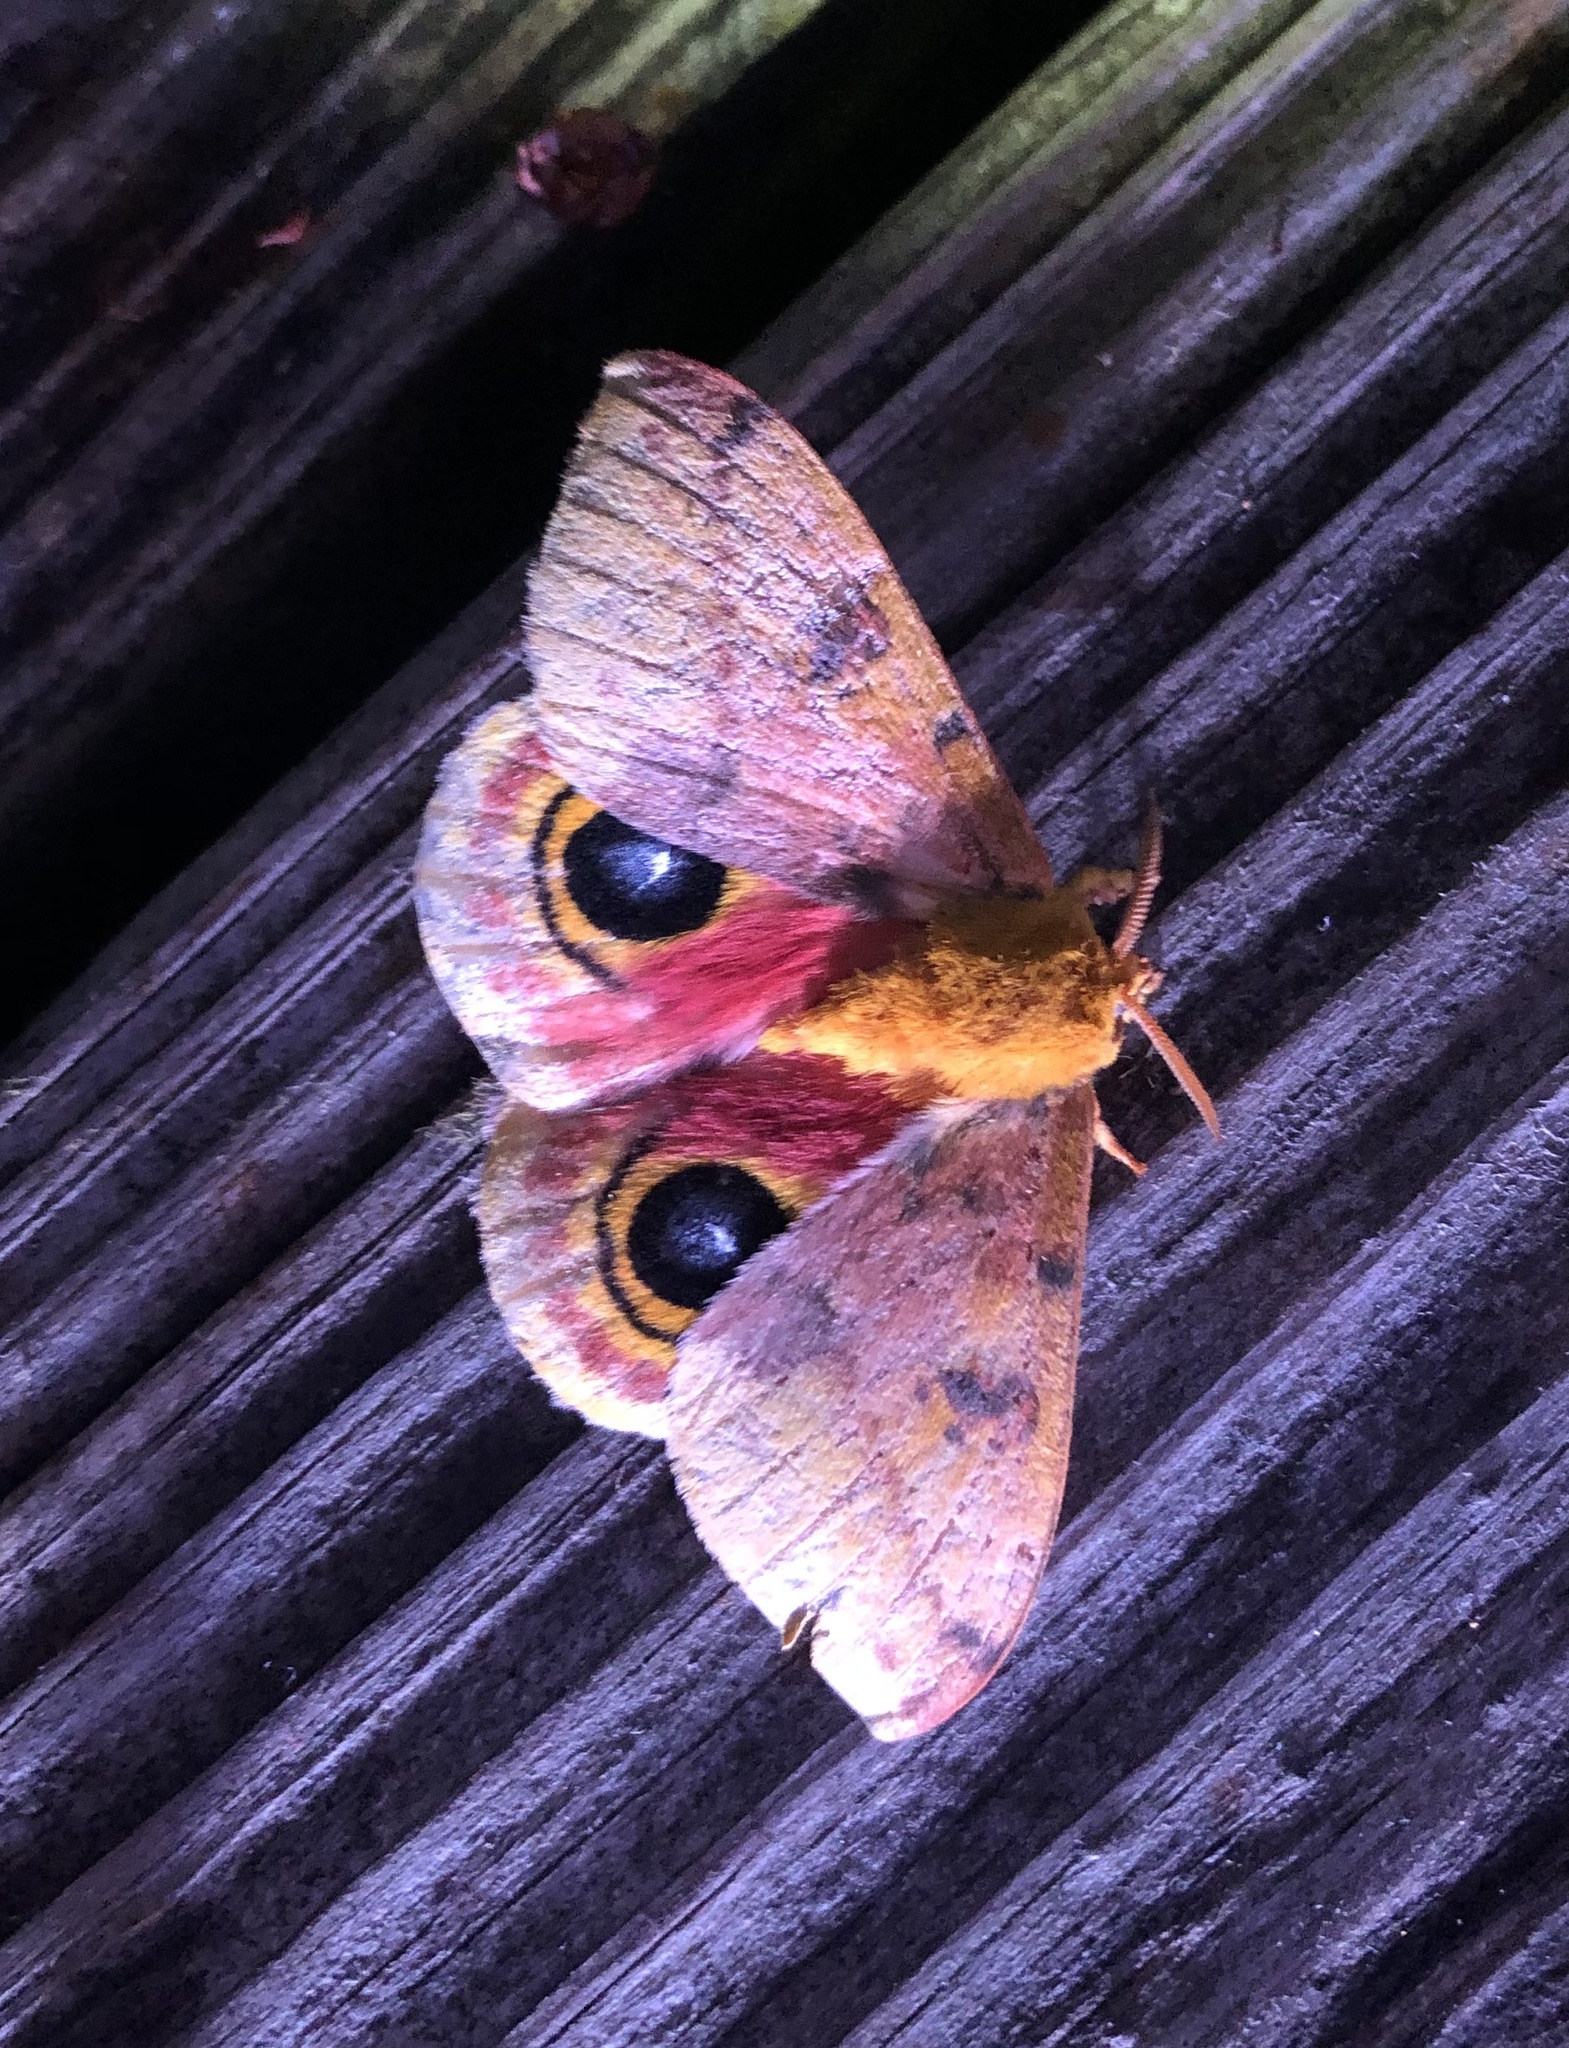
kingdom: Animalia
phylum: Arthropoda
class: Insecta
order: Lepidoptera
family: Saturniidae
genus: Automeris
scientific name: Automeris io
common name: Io moth
